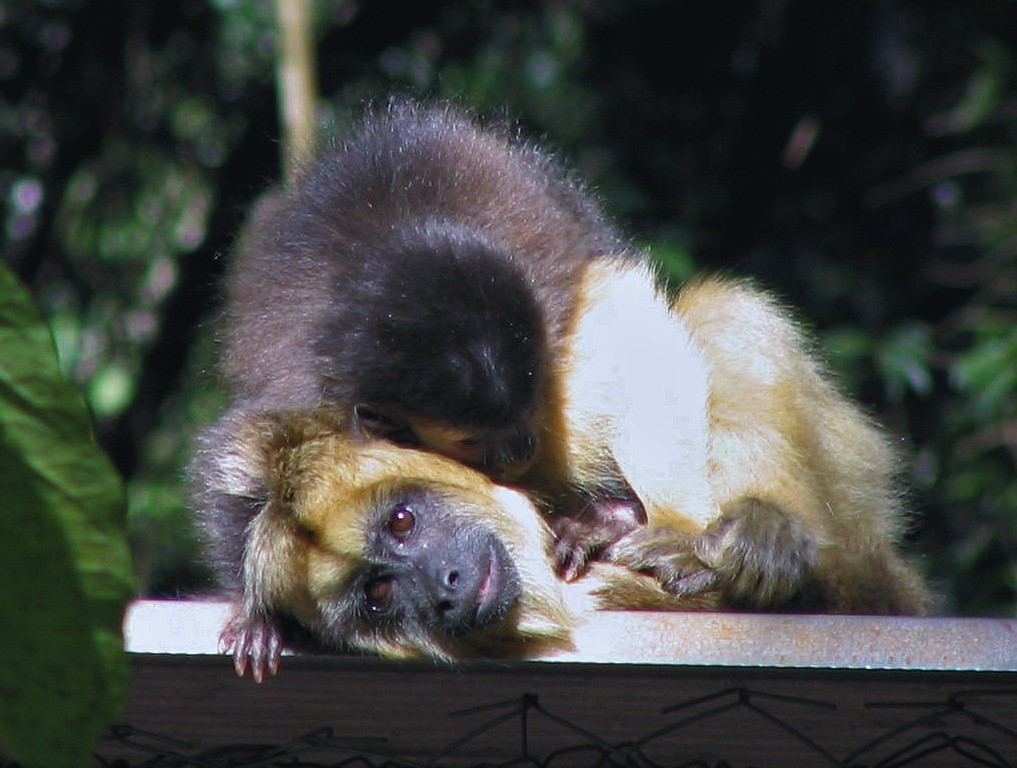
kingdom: Animalia
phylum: Chordata
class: Mammalia
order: Primates
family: Atelidae
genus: Alouatta
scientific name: Alouatta caraya
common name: Black howler
